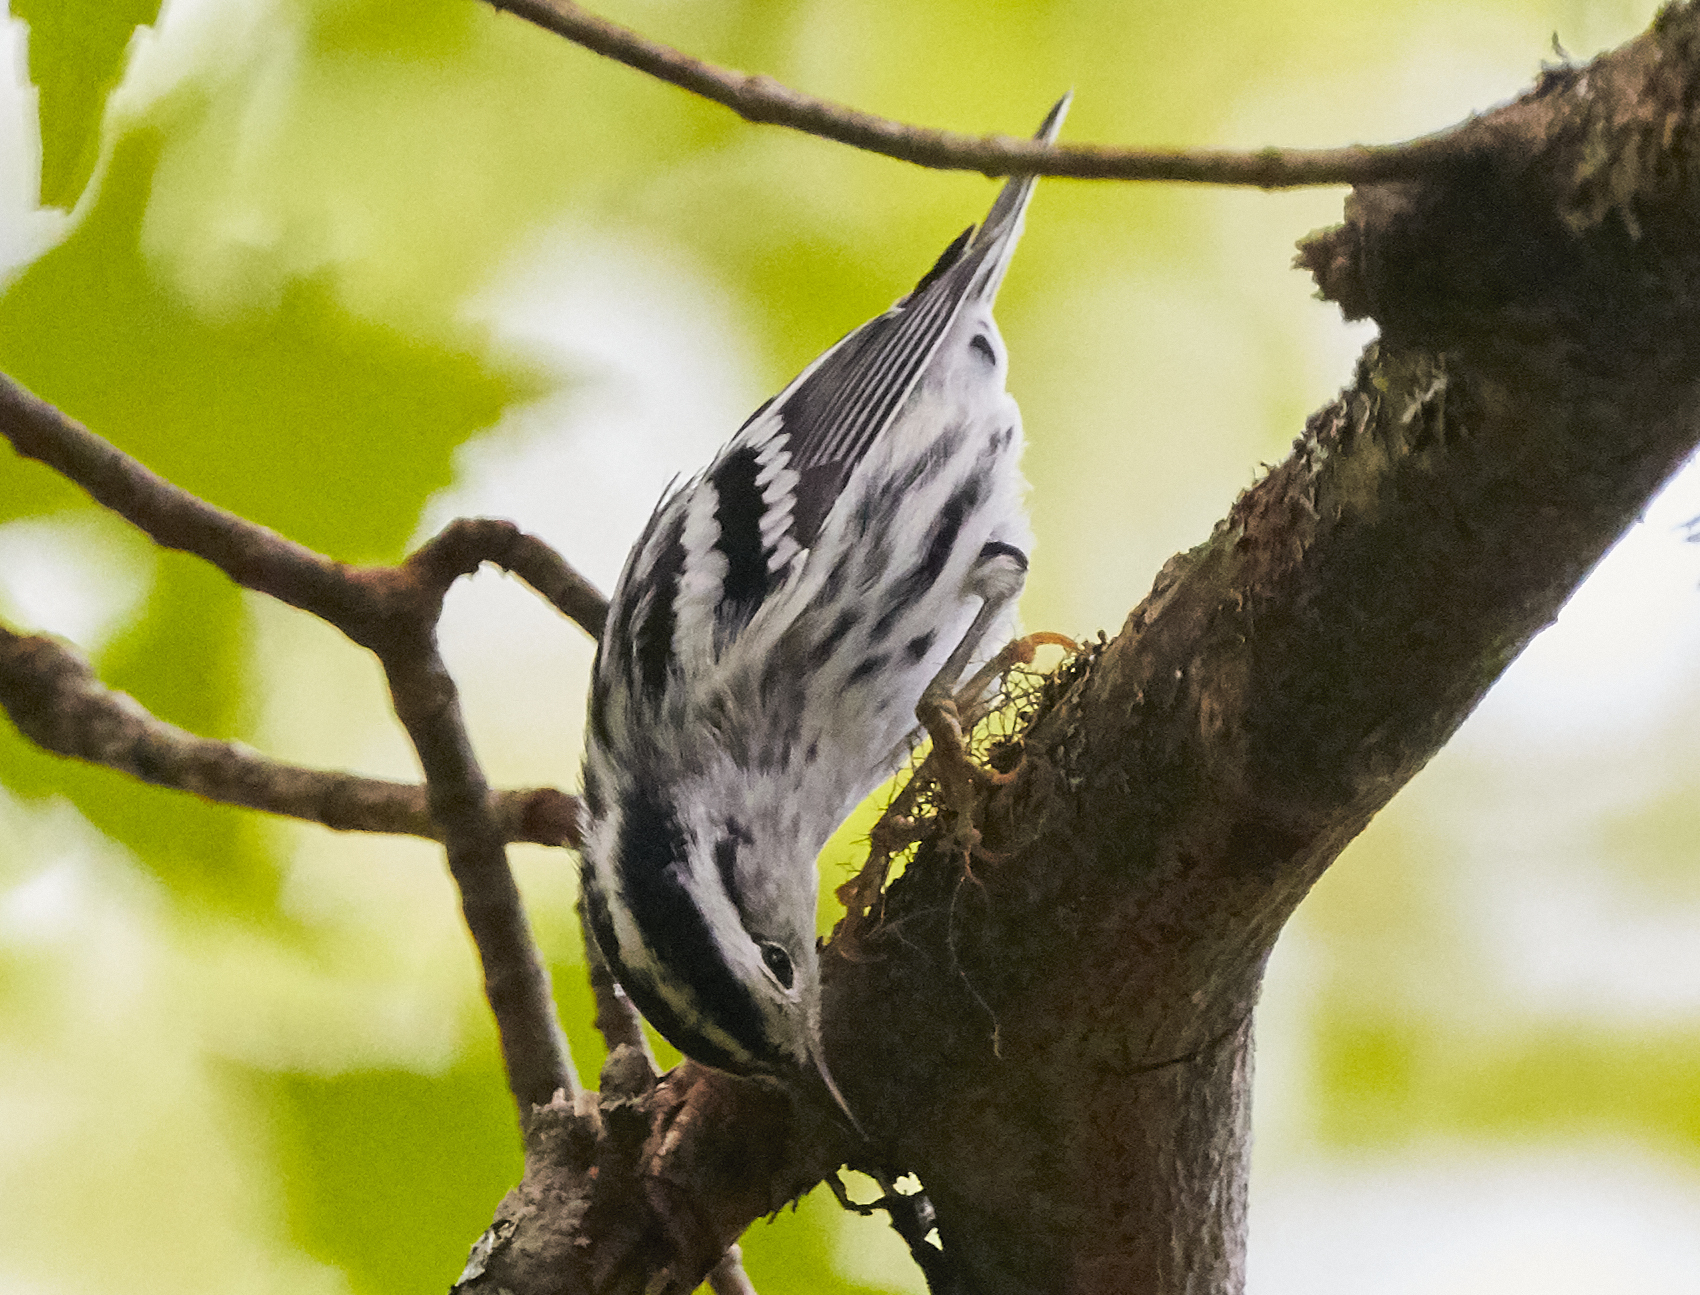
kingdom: Animalia
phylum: Chordata
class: Aves
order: Passeriformes
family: Parulidae
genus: Mniotilta
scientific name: Mniotilta varia
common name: Black-and-white warbler
